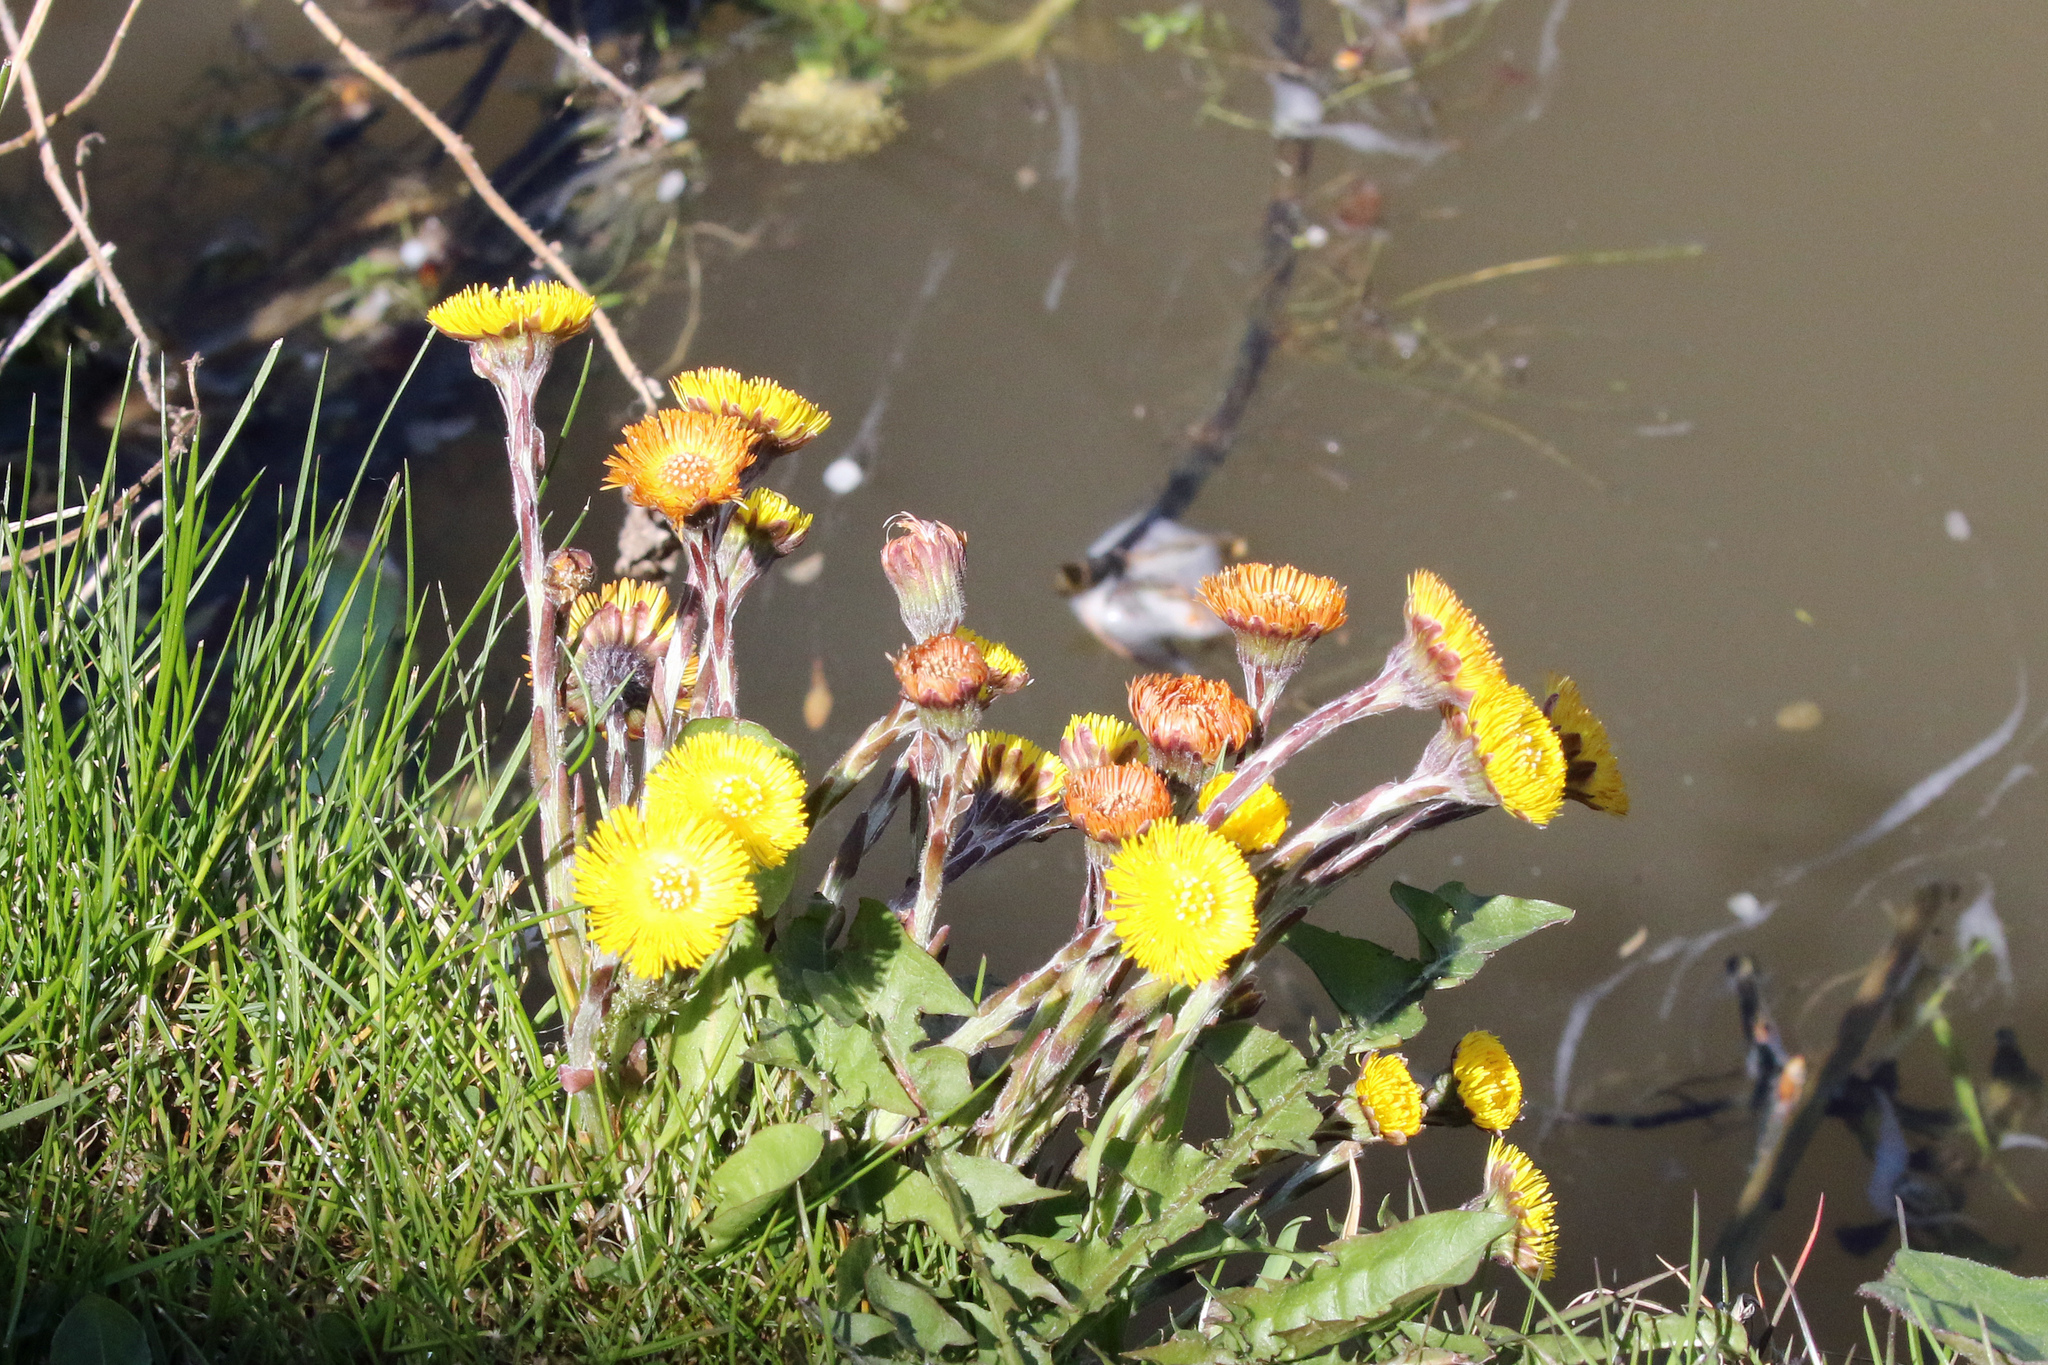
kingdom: Plantae
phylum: Tracheophyta
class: Magnoliopsida
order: Asterales
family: Asteraceae
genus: Tussilago
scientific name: Tussilago farfara
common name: Coltsfoot
